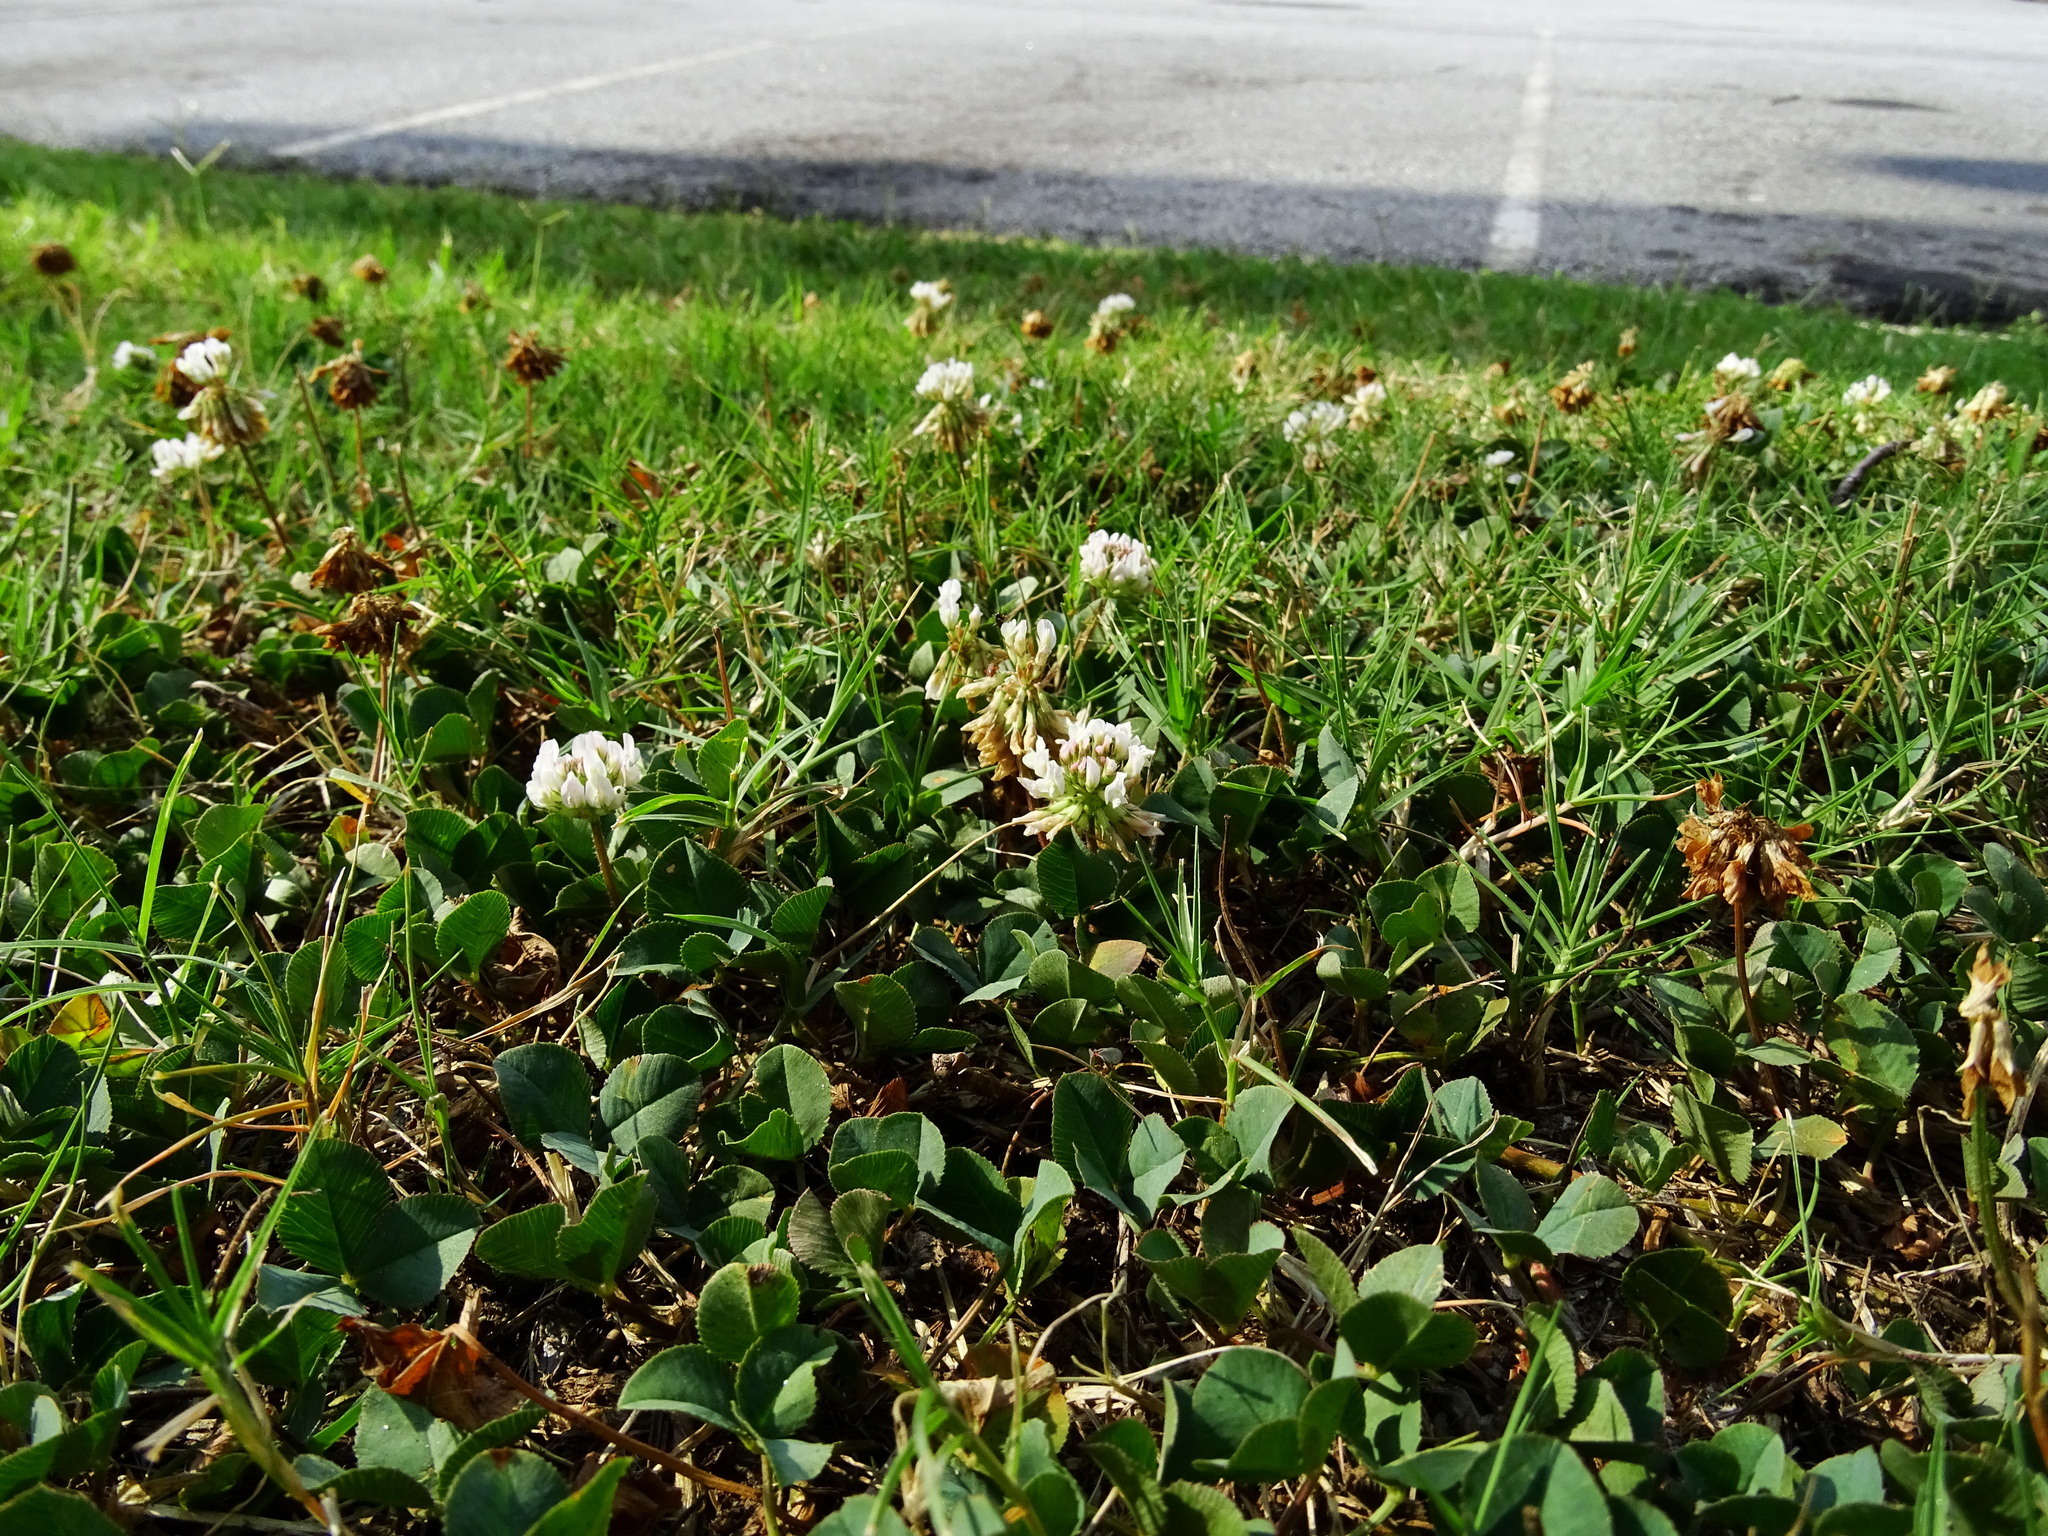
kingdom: Plantae
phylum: Tracheophyta
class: Magnoliopsida
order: Fabales
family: Fabaceae
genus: Trifolium
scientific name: Trifolium repens
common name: White clover
